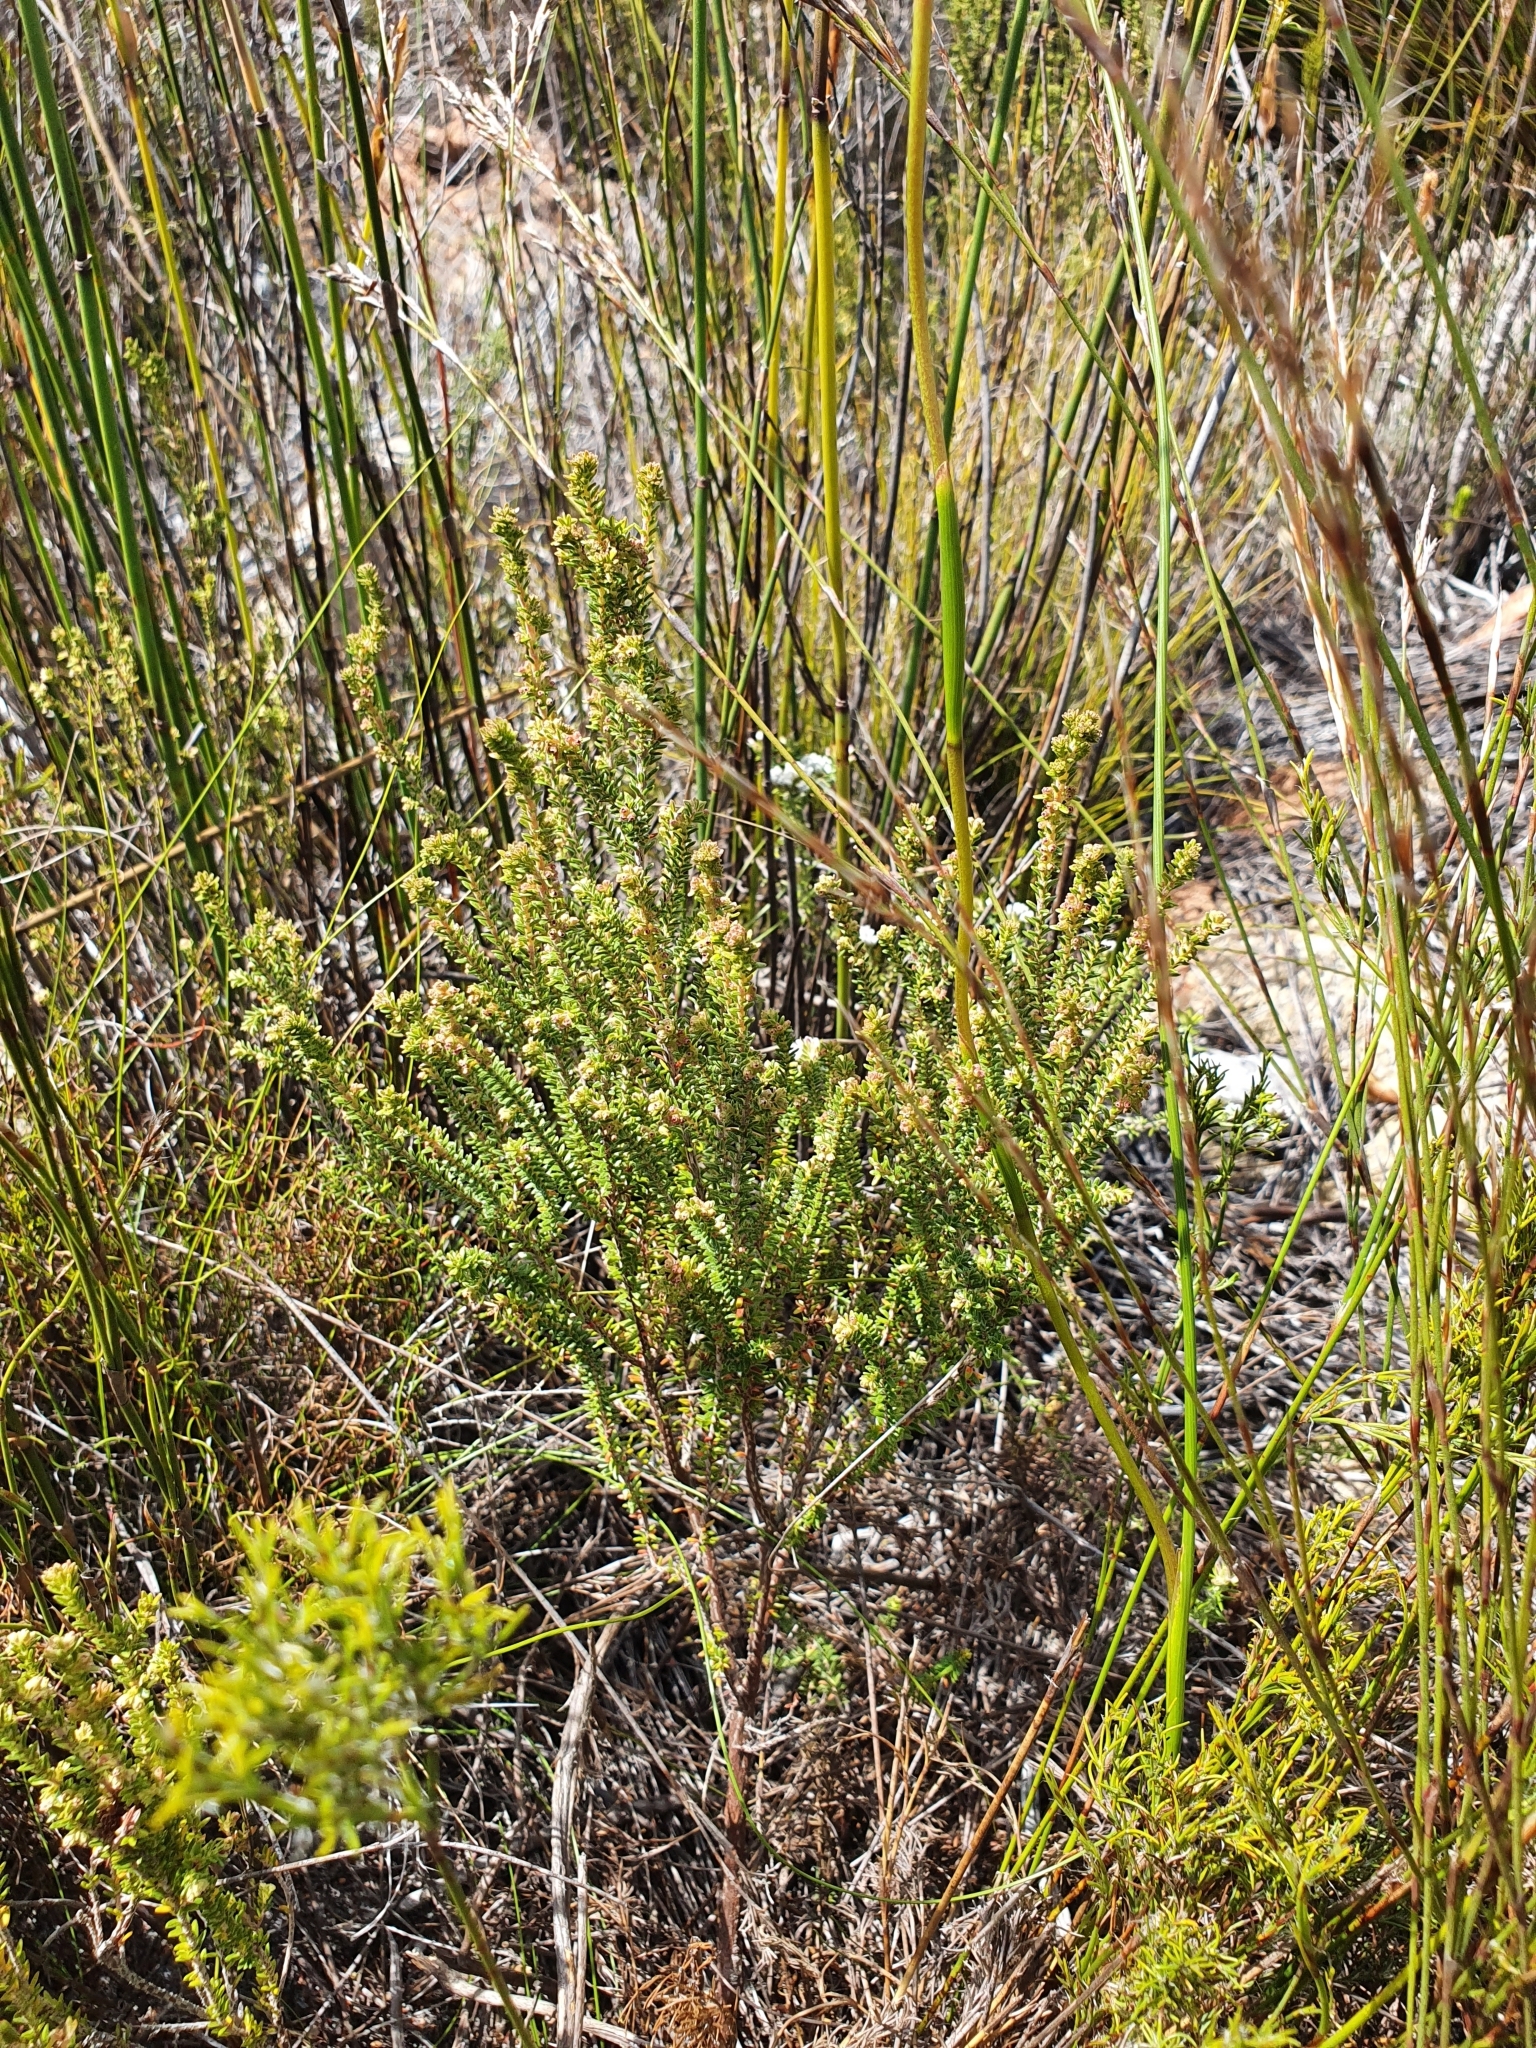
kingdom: Plantae
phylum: Tracheophyta
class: Magnoliopsida
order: Ericales
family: Ericaceae
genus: Erica
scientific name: Erica serrata
